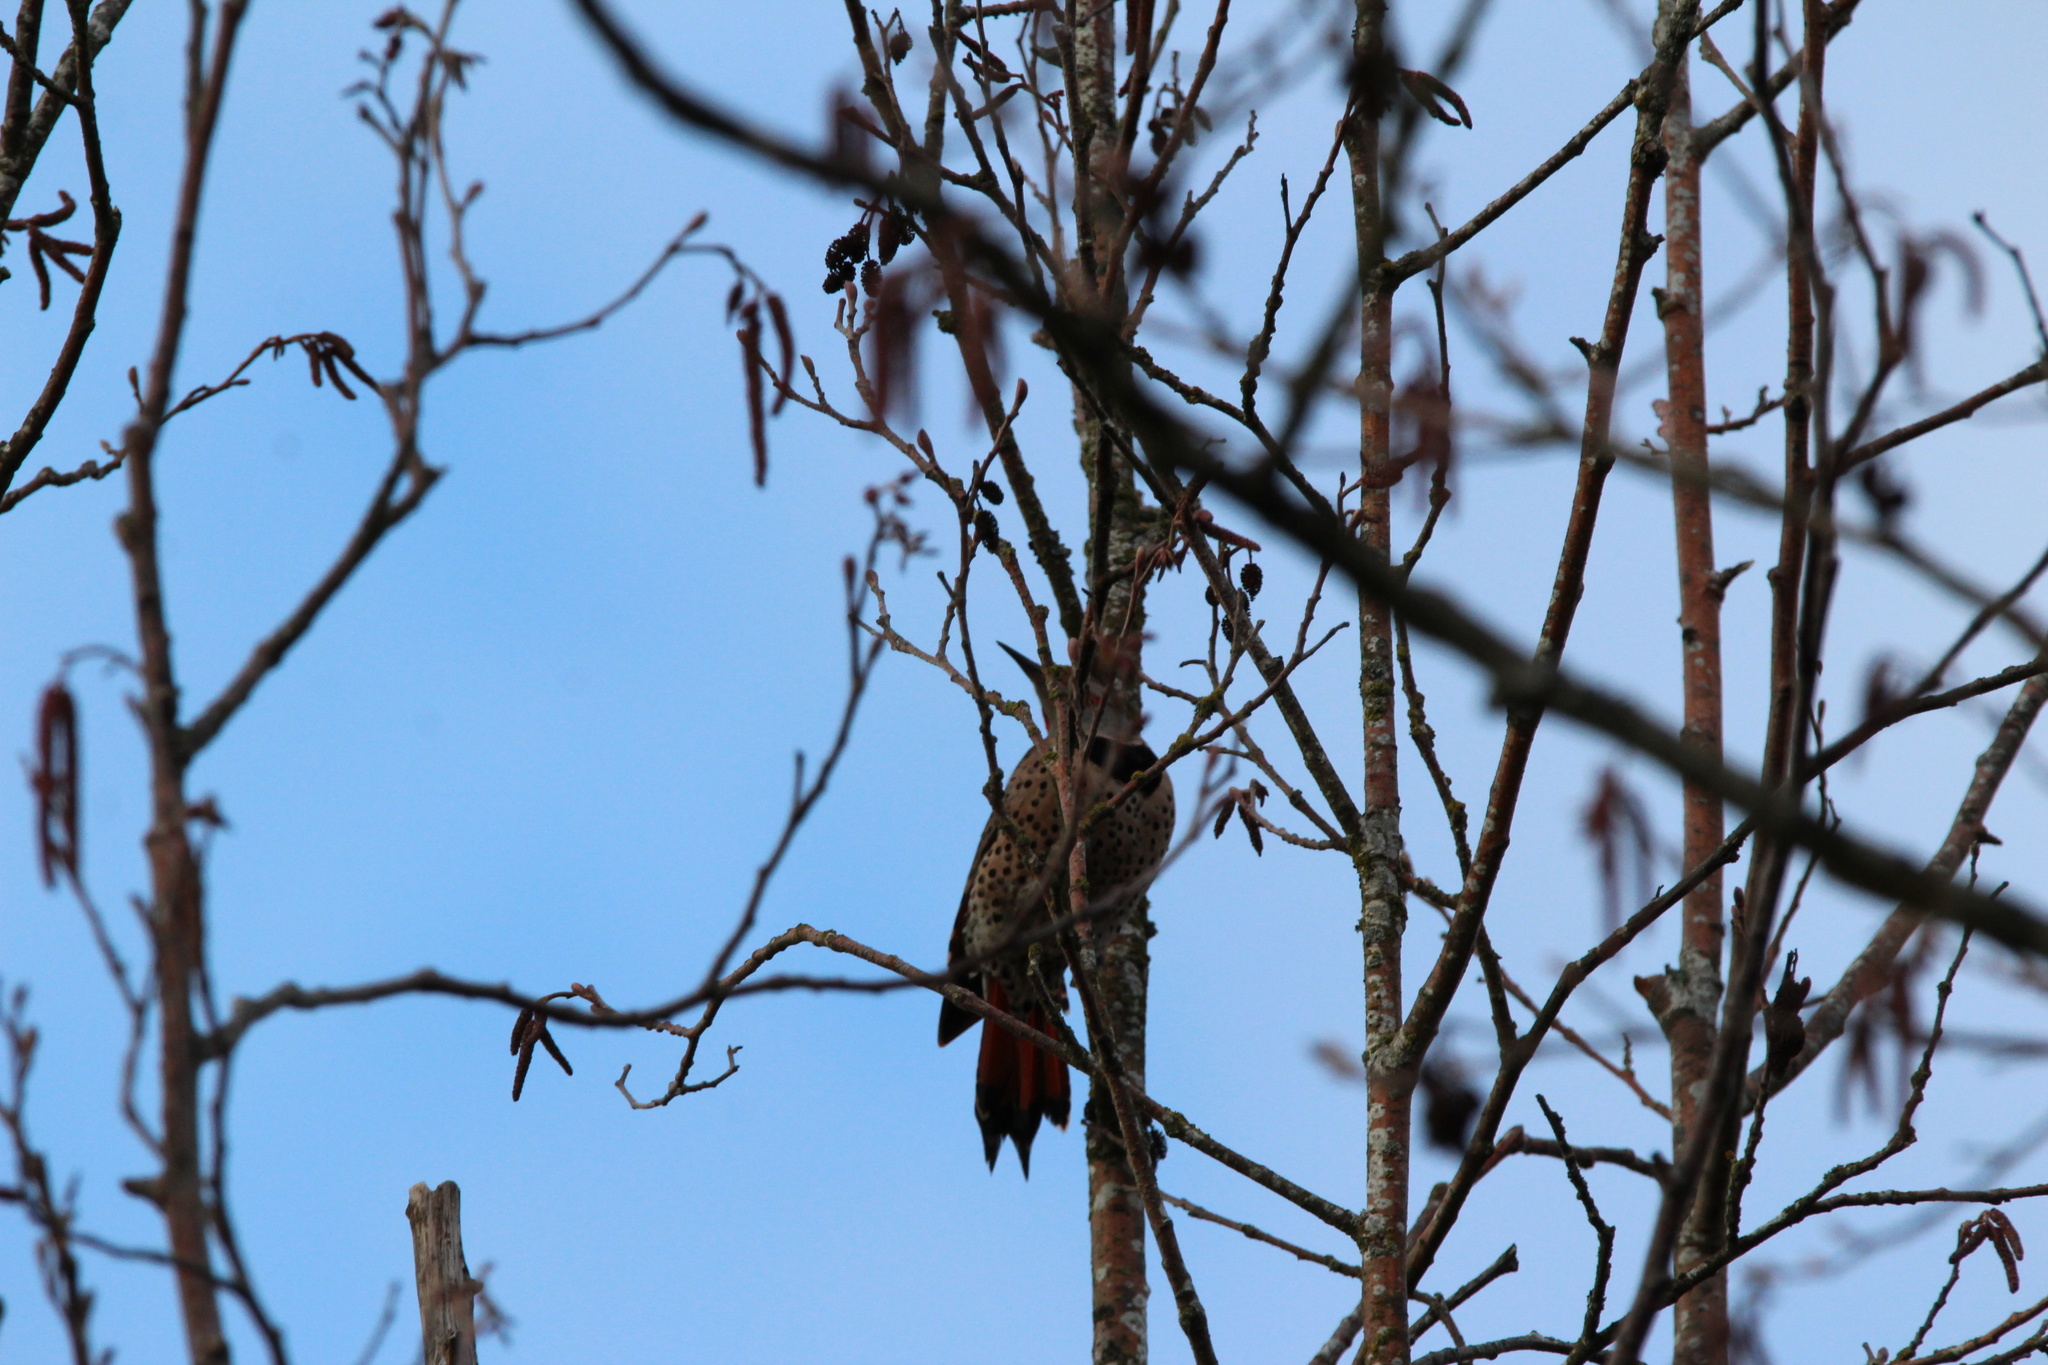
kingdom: Animalia
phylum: Chordata
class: Aves
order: Piciformes
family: Picidae
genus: Colaptes
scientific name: Colaptes auratus
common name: Northern flicker
